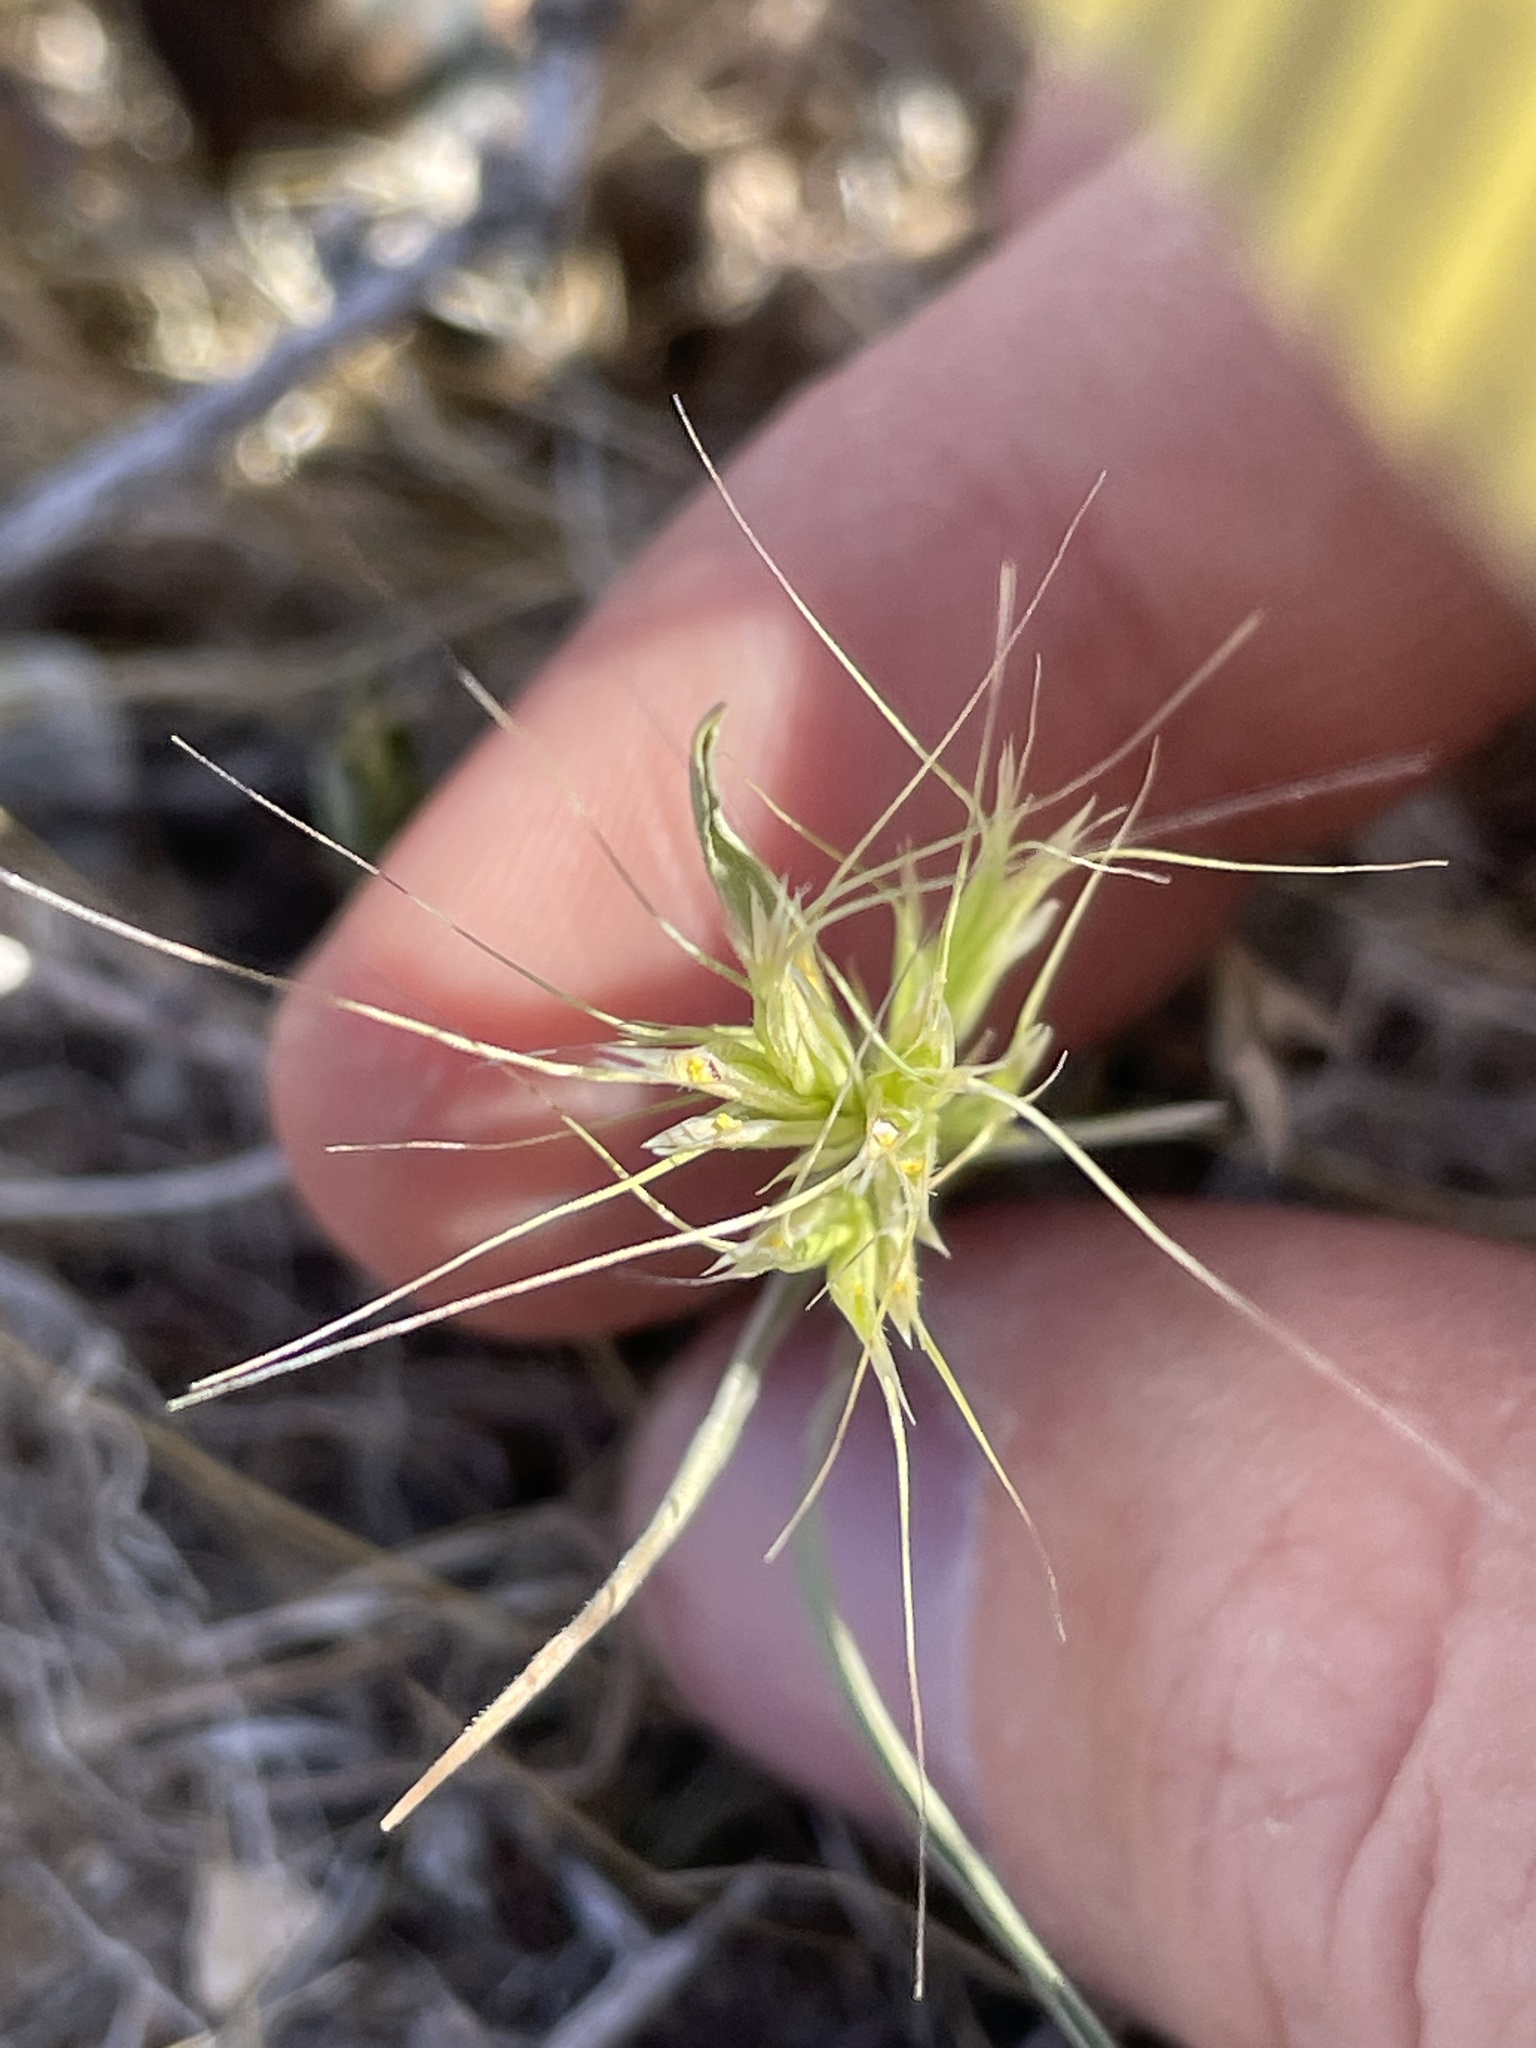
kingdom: Plantae
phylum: Tracheophyta
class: Liliopsida
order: Poales
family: Poaceae
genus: Bromus
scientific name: Bromus rubens
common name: Red brome
